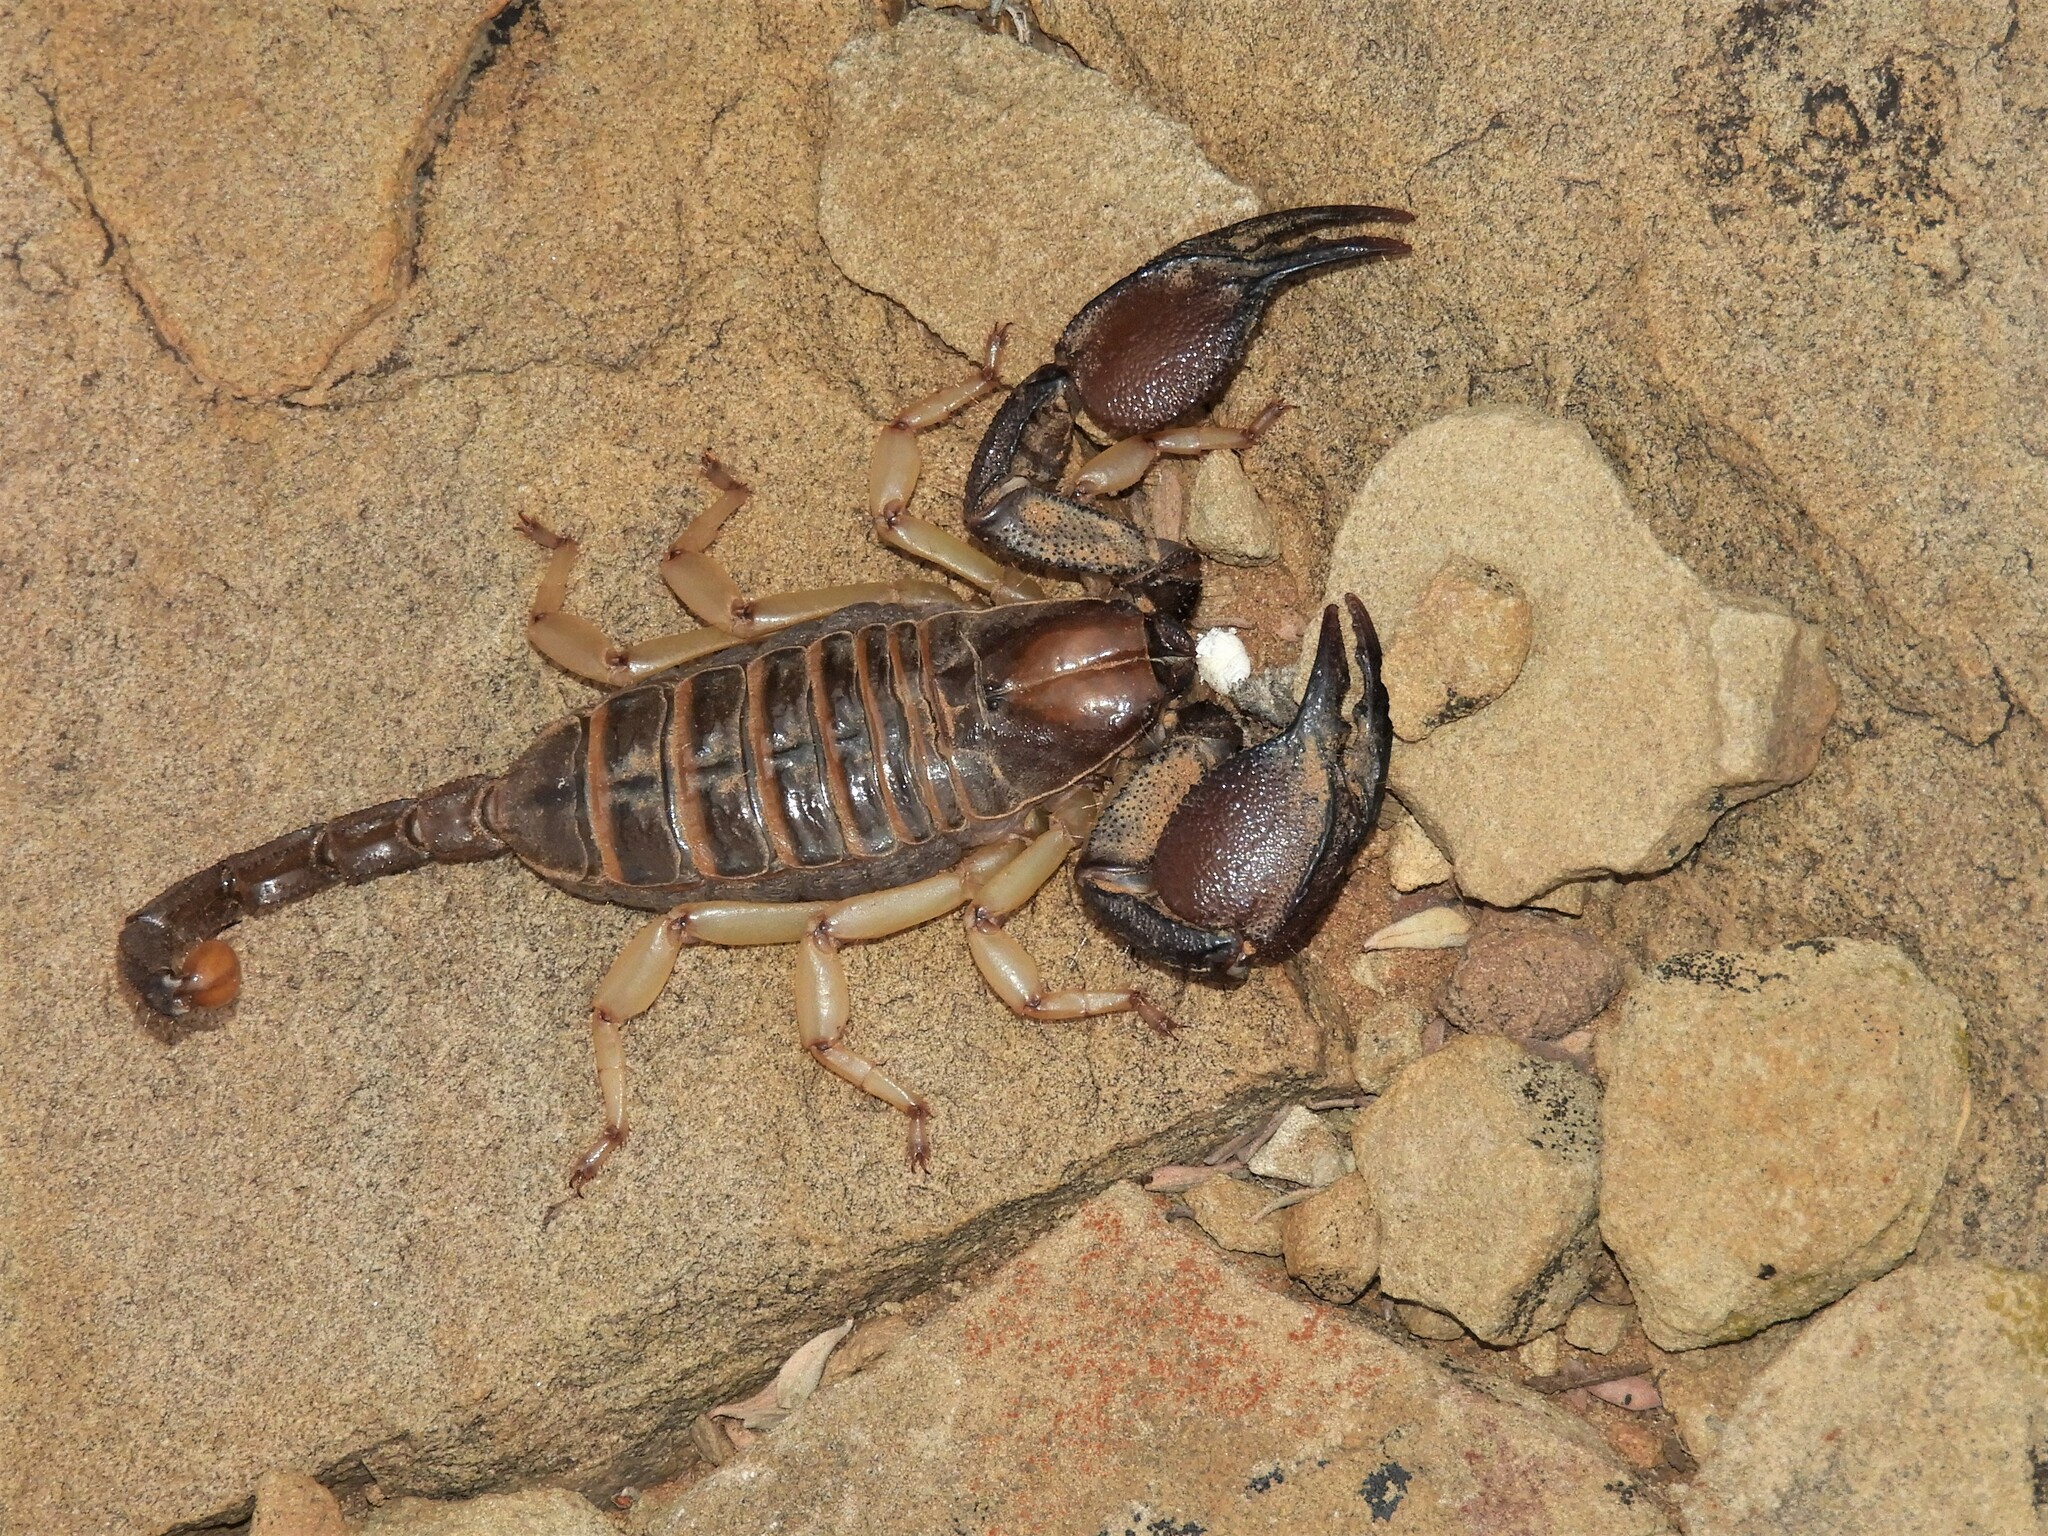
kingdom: Animalia
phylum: Arthropoda
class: Arachnida
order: Scorpiones
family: Scorpionidae
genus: Opistophthalmus
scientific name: Opistophthalmus austerus
